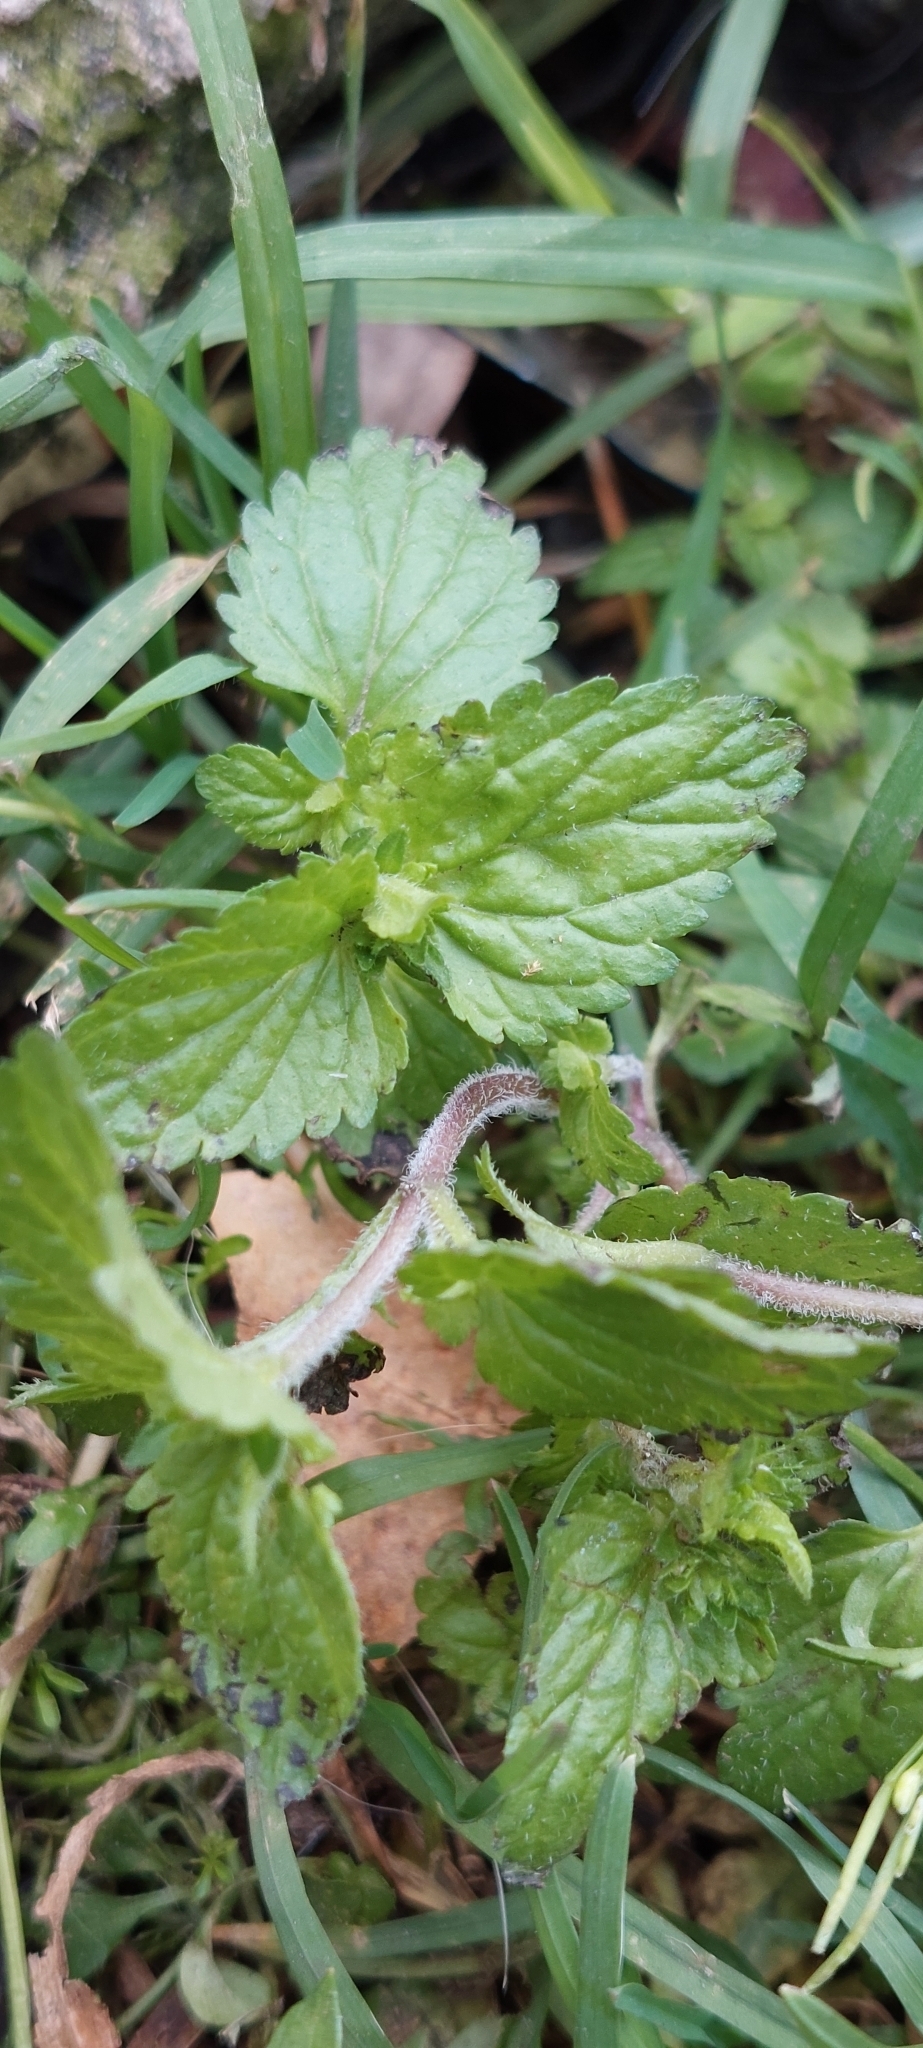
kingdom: Plantae
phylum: Tracheophyta
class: Magnoliopsida
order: Lamiales
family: Plantaginaceae
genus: Veronica
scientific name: Veronica javanica
